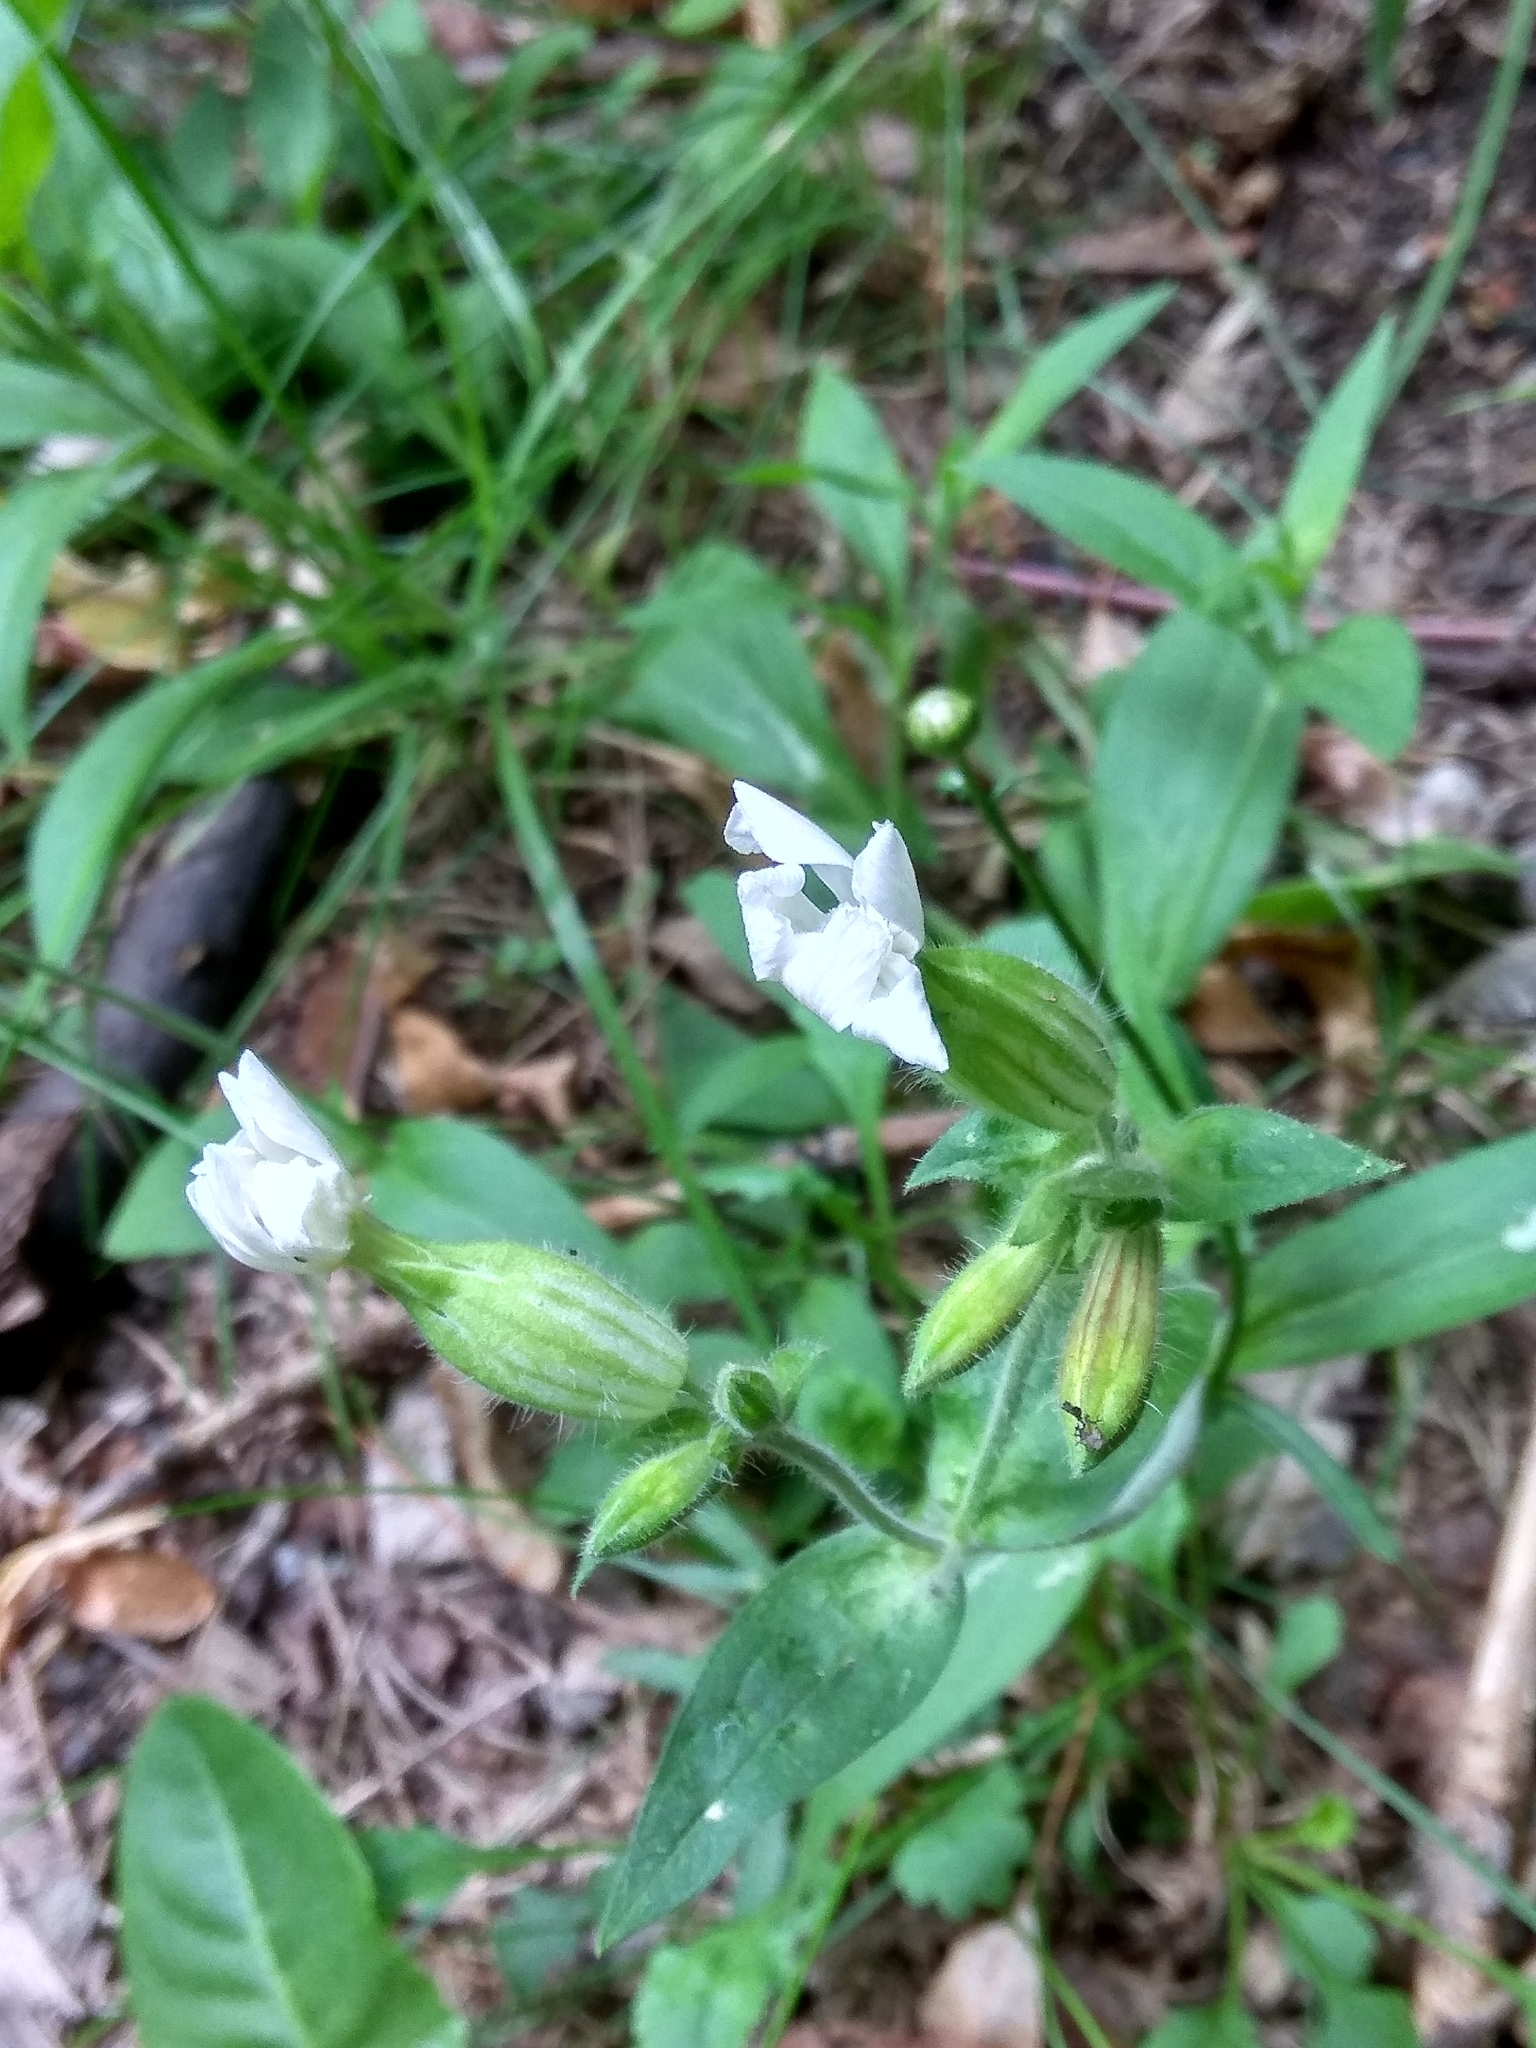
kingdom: Plantae
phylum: Tracheophyta
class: Magnoliopsida
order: Caryophyllales
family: Caryophyllaceae
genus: Silene
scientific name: Silene latifolia
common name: White campion
